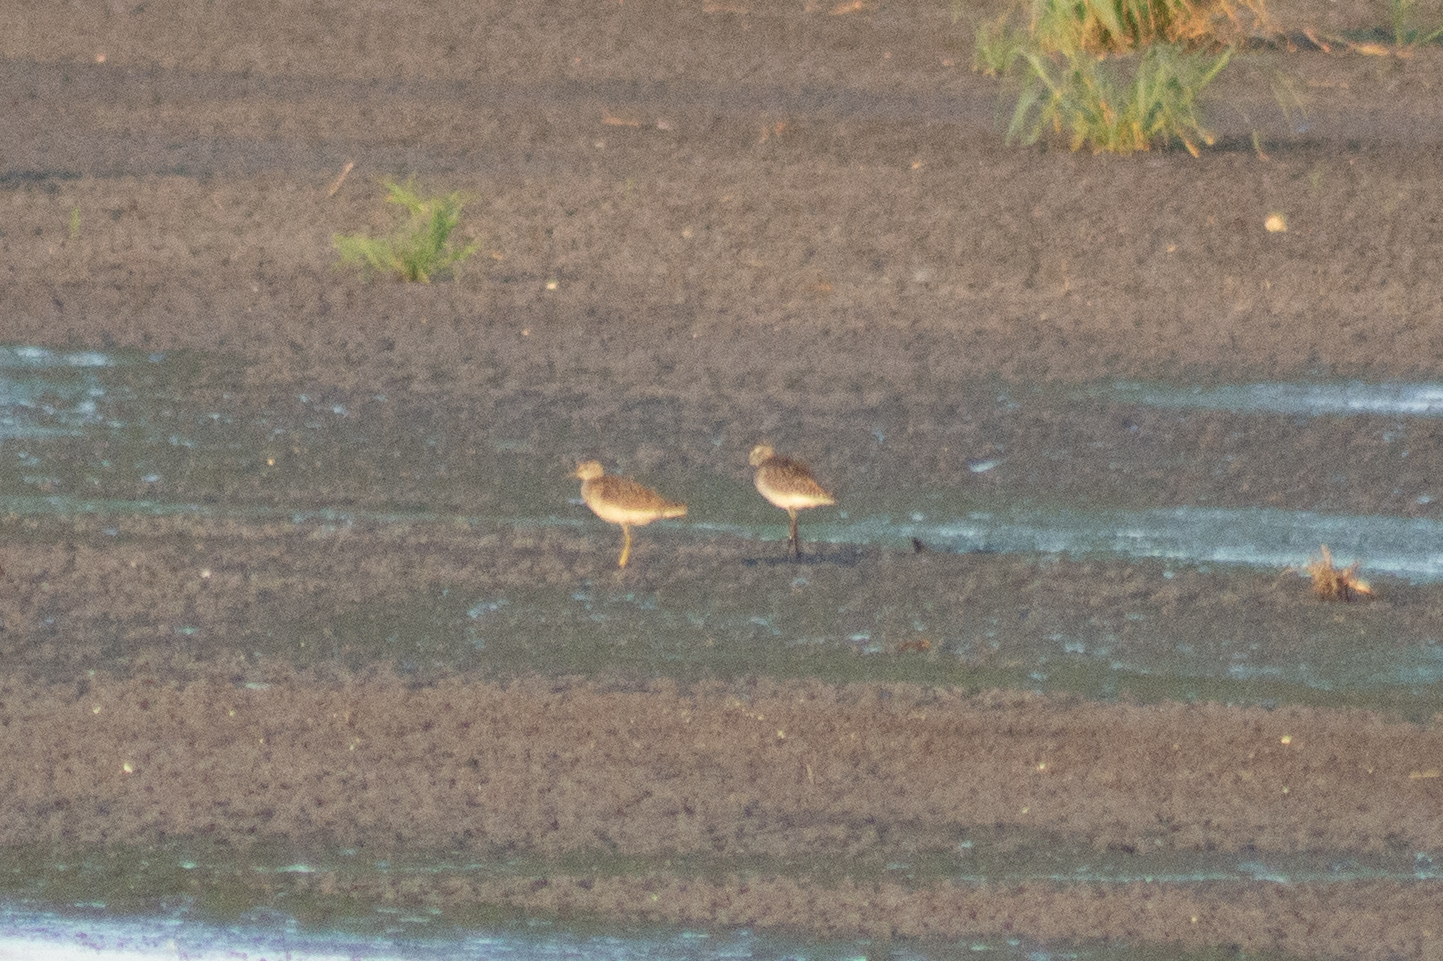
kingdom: Animalia
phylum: Chordata
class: Aves
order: Charadriiformes
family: Scolopacidae
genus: Tringa
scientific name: Tringa glareola
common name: Wood sandpiper
